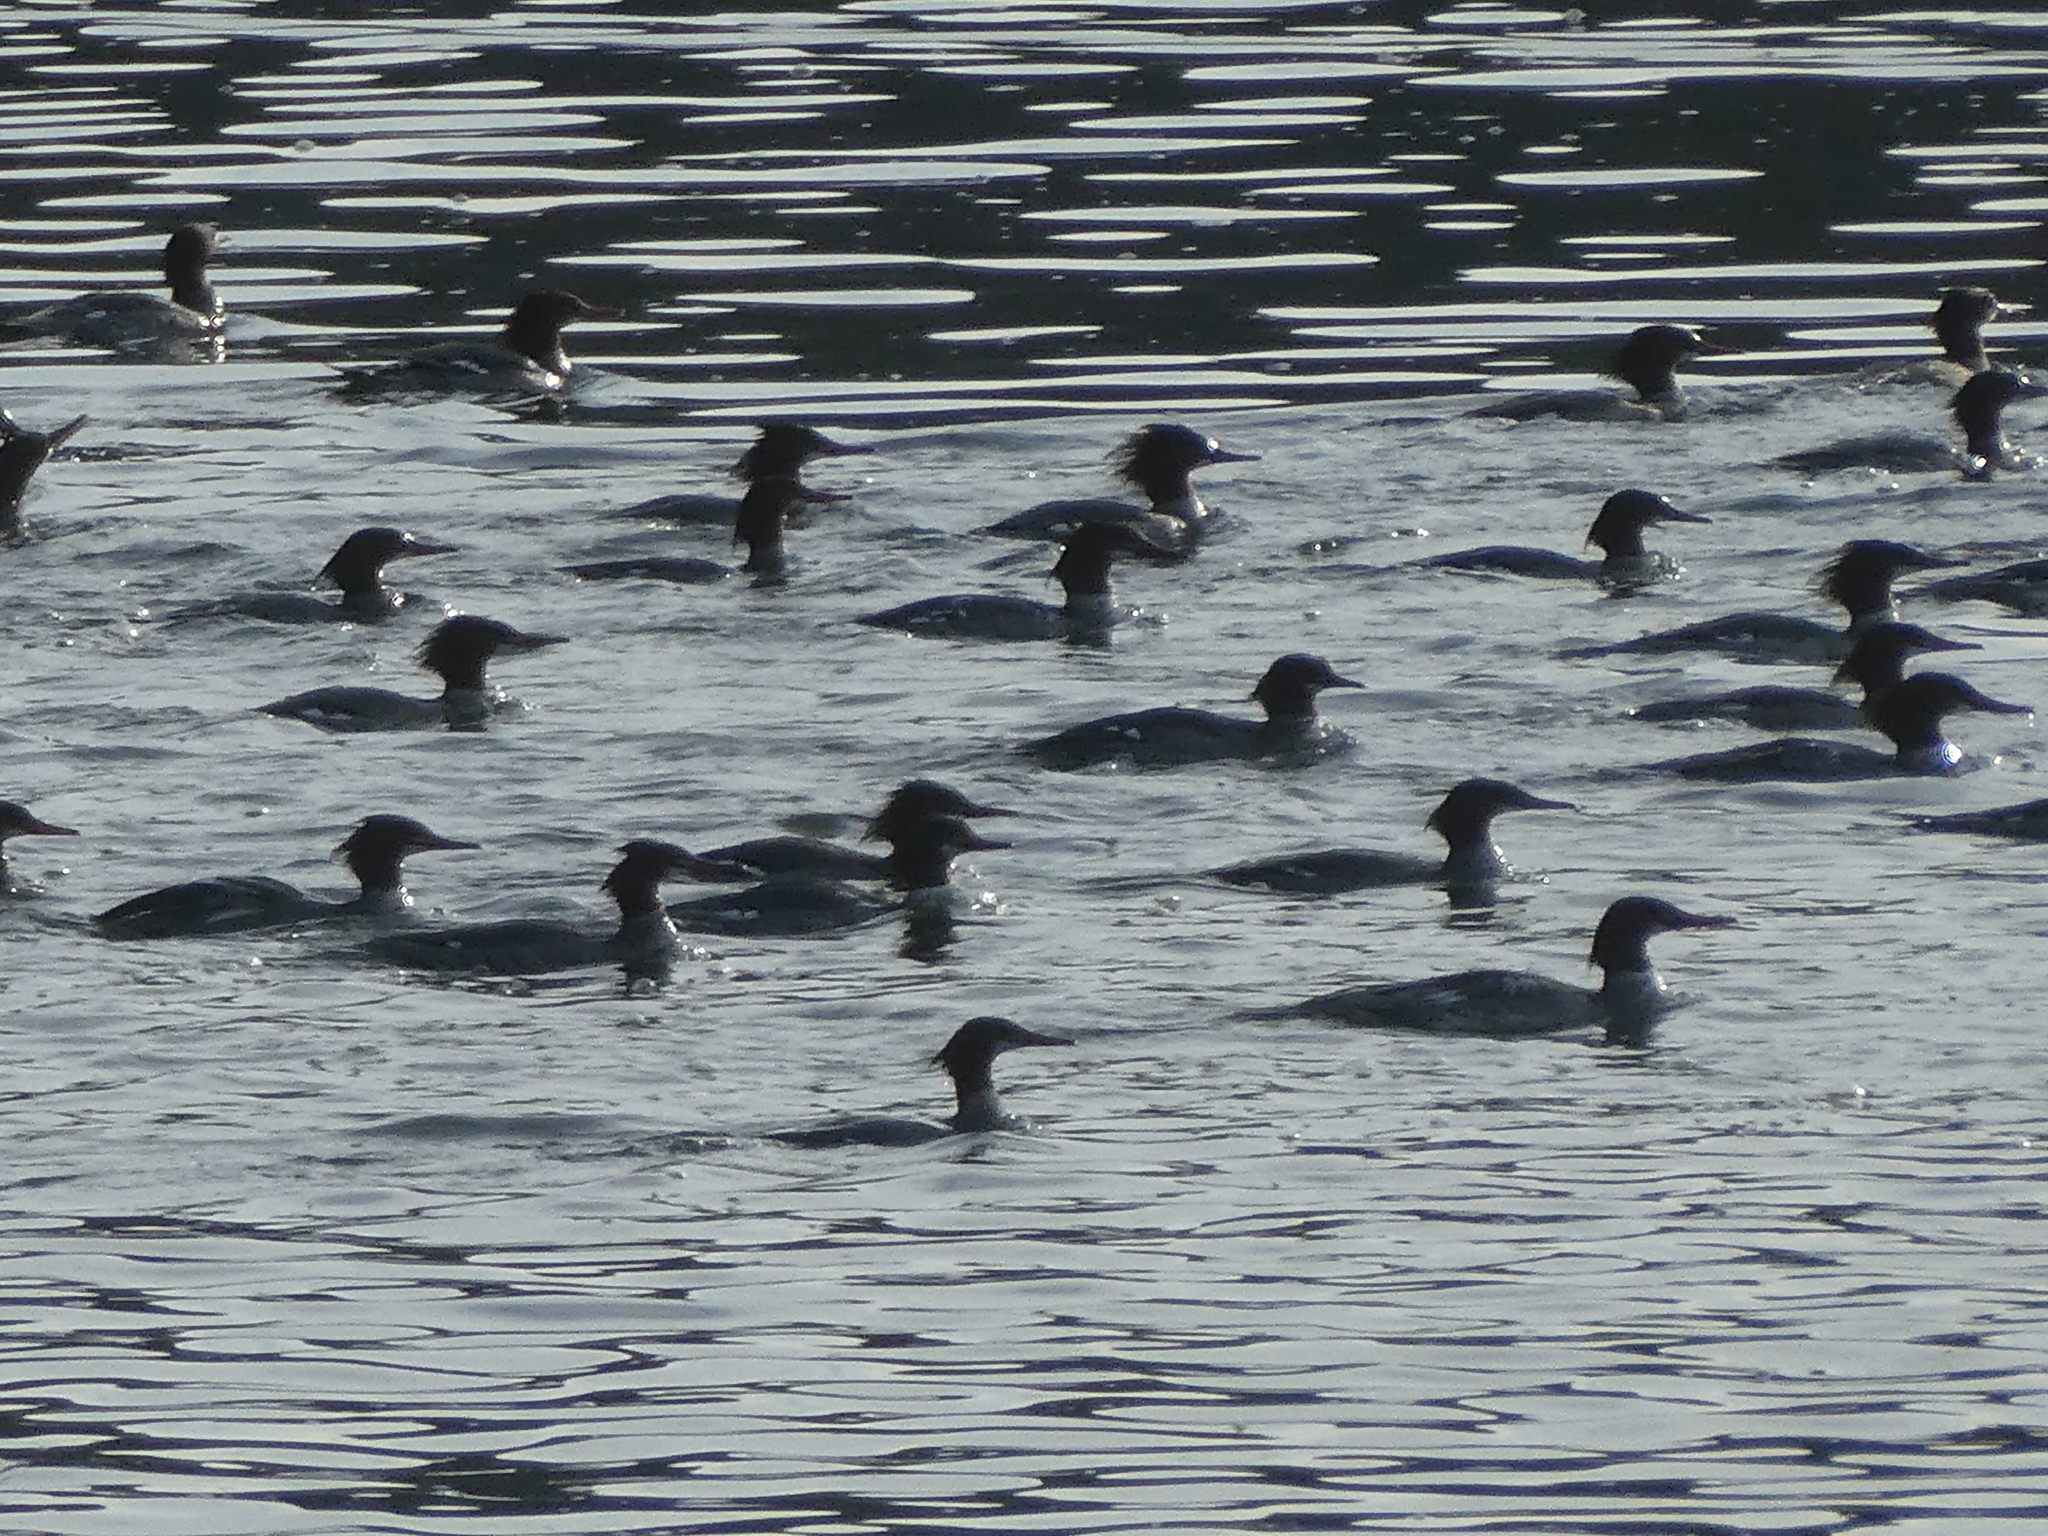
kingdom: Animalia
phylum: Chordata
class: Aves
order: Anseriformes
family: Anatidae
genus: Mergus
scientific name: Mergus merganser
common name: Common merganser
